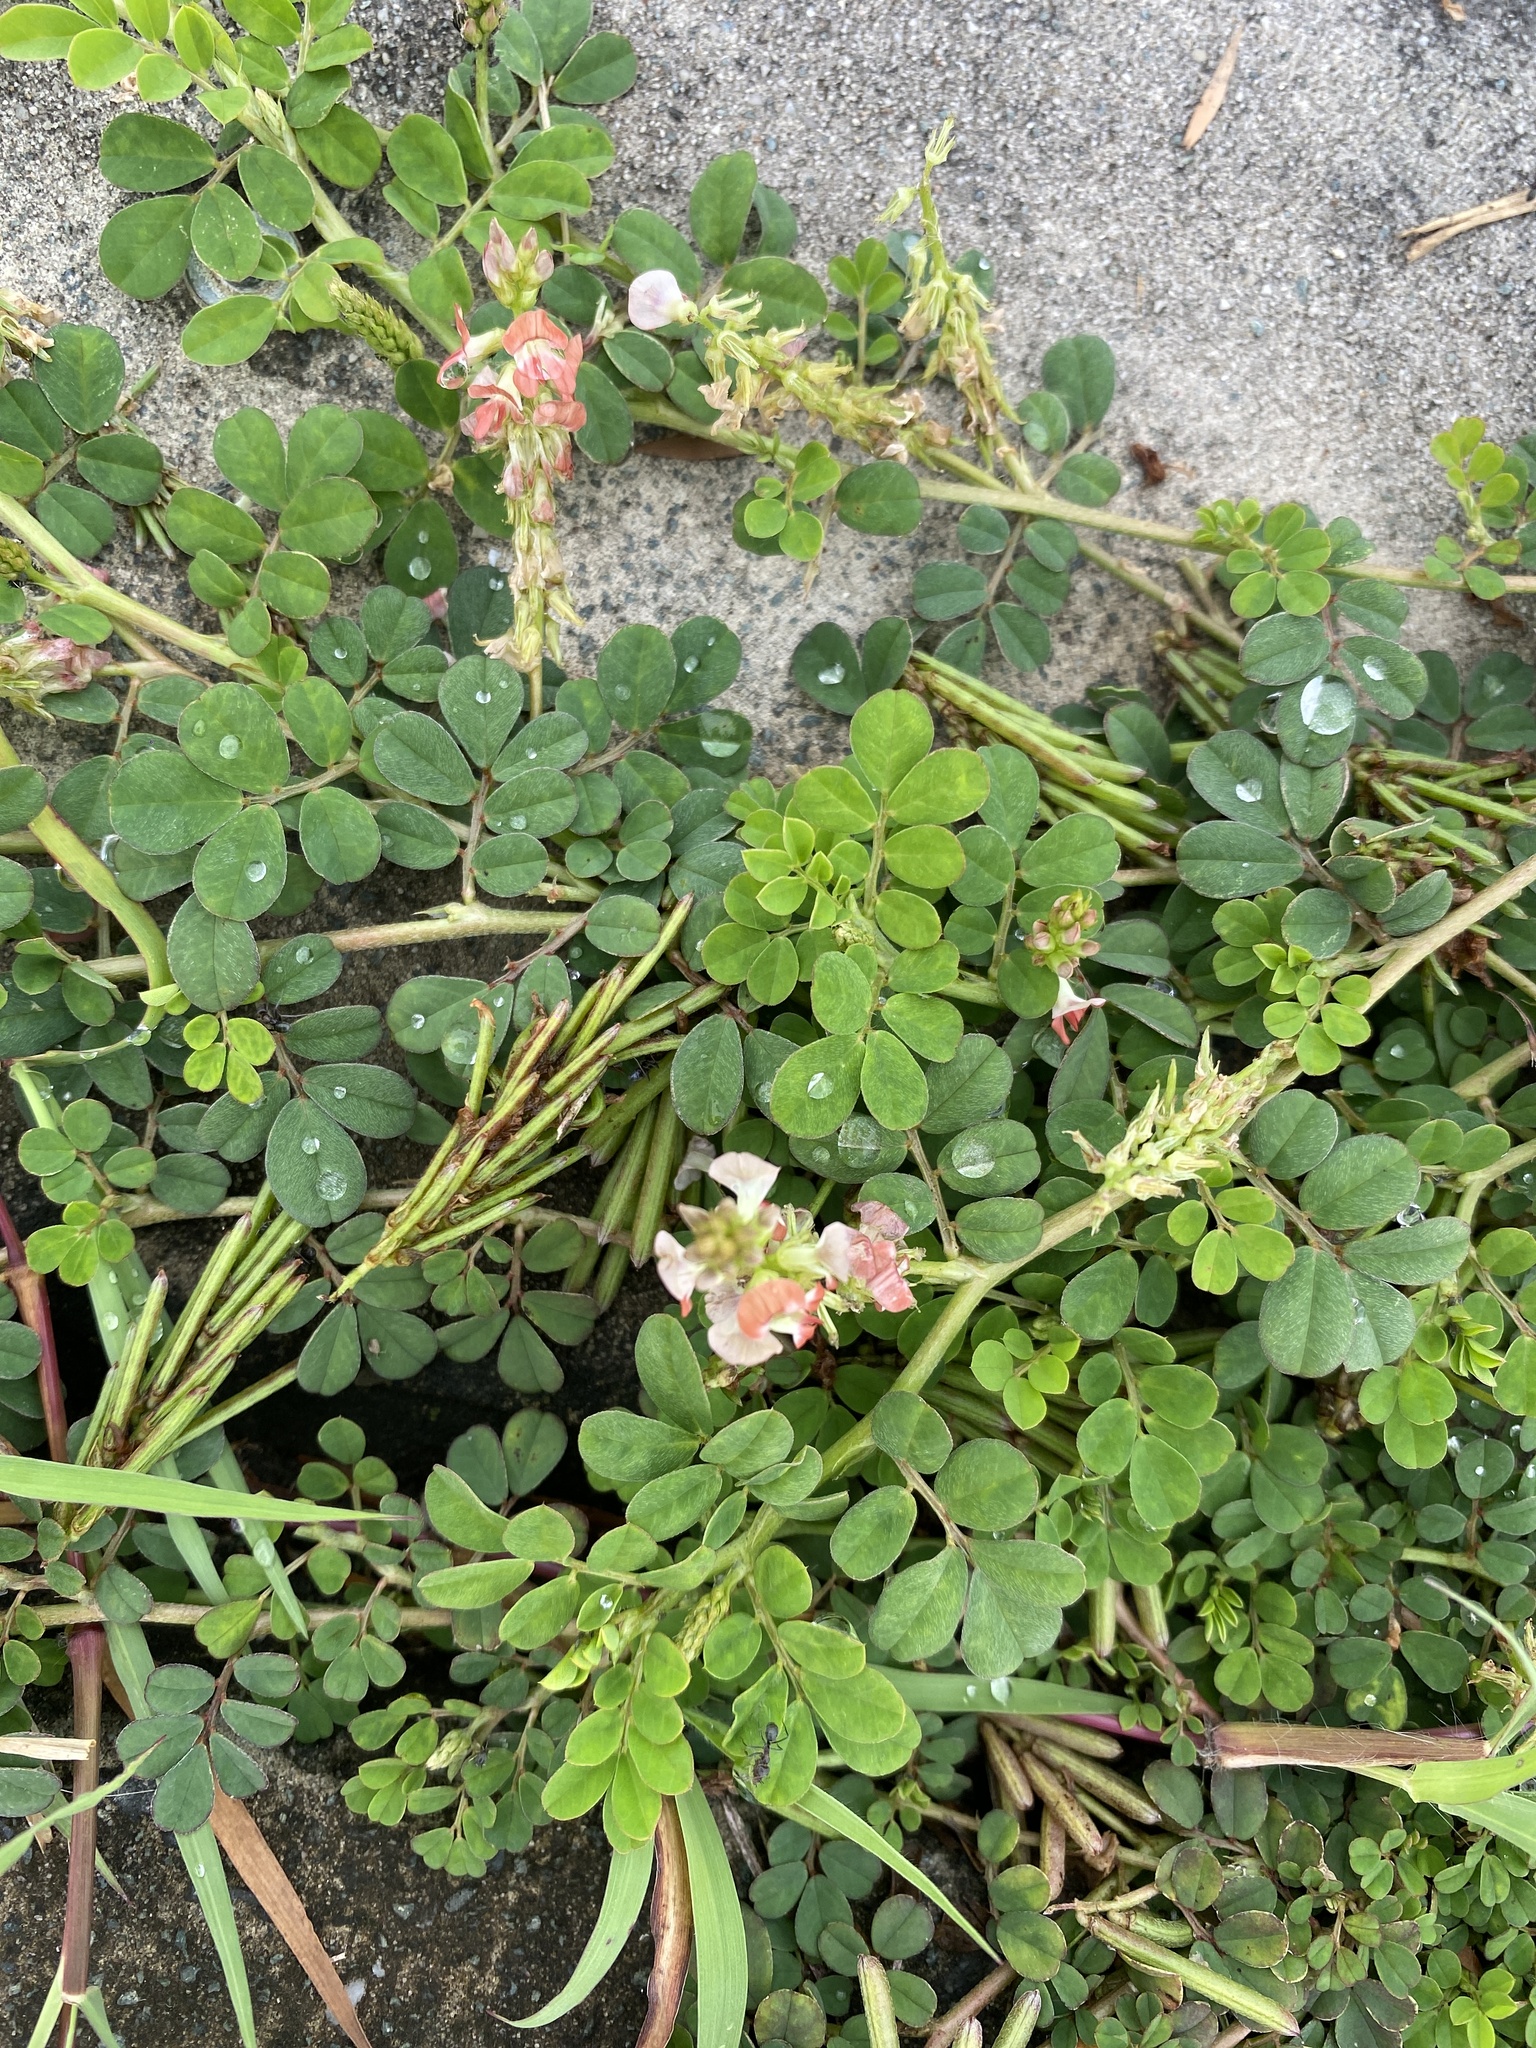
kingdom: Plantae
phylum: Tracheophyta
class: Magnoliopsida
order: Fabales
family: Fabaceae
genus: Indigofera
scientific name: Indigofera spicata
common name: Creeping indigo
